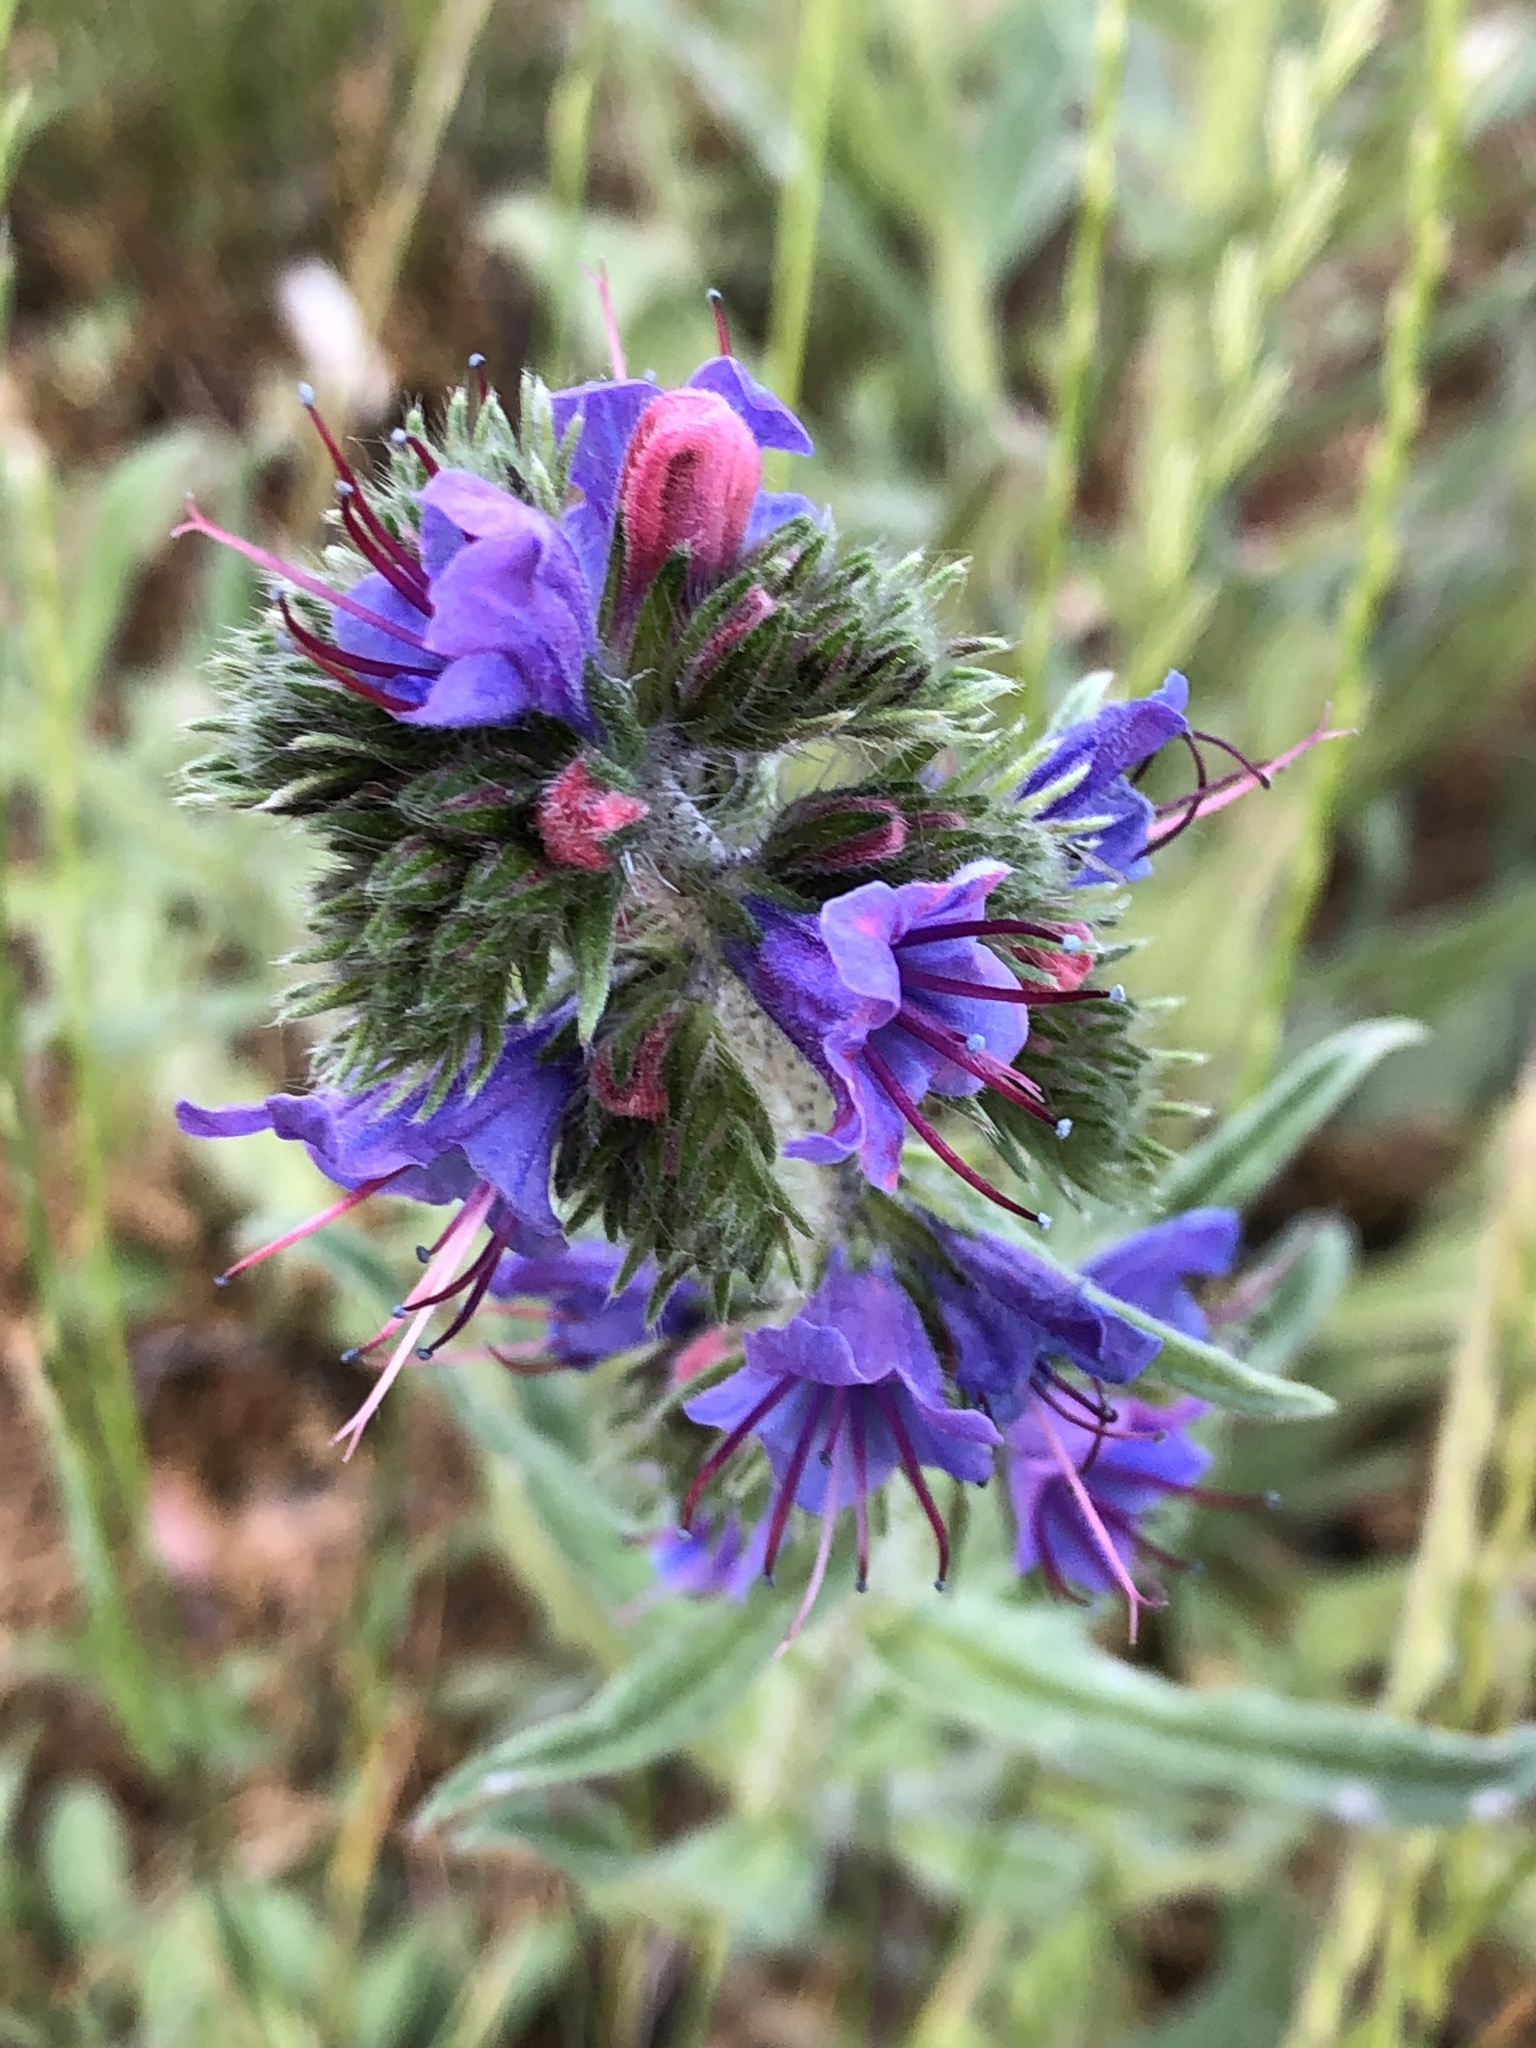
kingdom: Plantae
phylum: Tracheophyta
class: Magnoliopsida
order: Boraginales
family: Boraginaceae
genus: Echium
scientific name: Echium vulgare
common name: Common viper's bugloss
